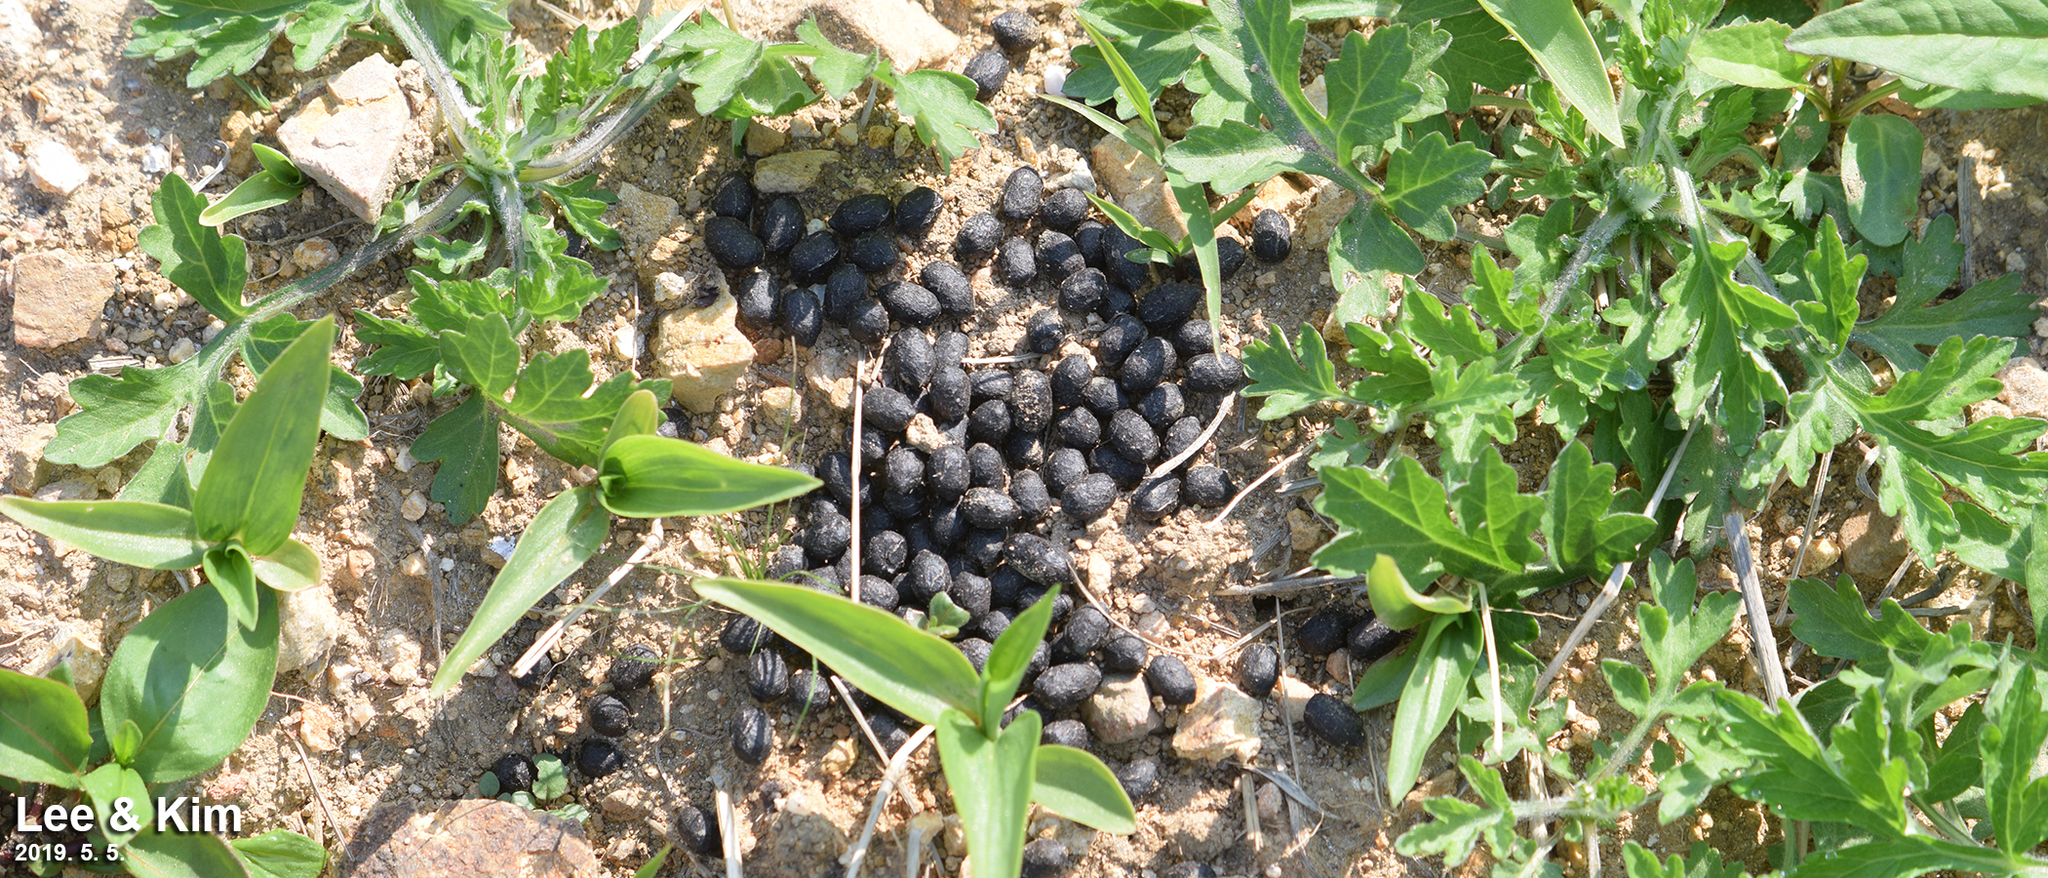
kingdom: Animalia
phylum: Chordata
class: Mammalia
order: Artiodactyla
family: Cervidae
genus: Hydropotes
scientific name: Hydropotes inermis
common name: Chinese water deer
